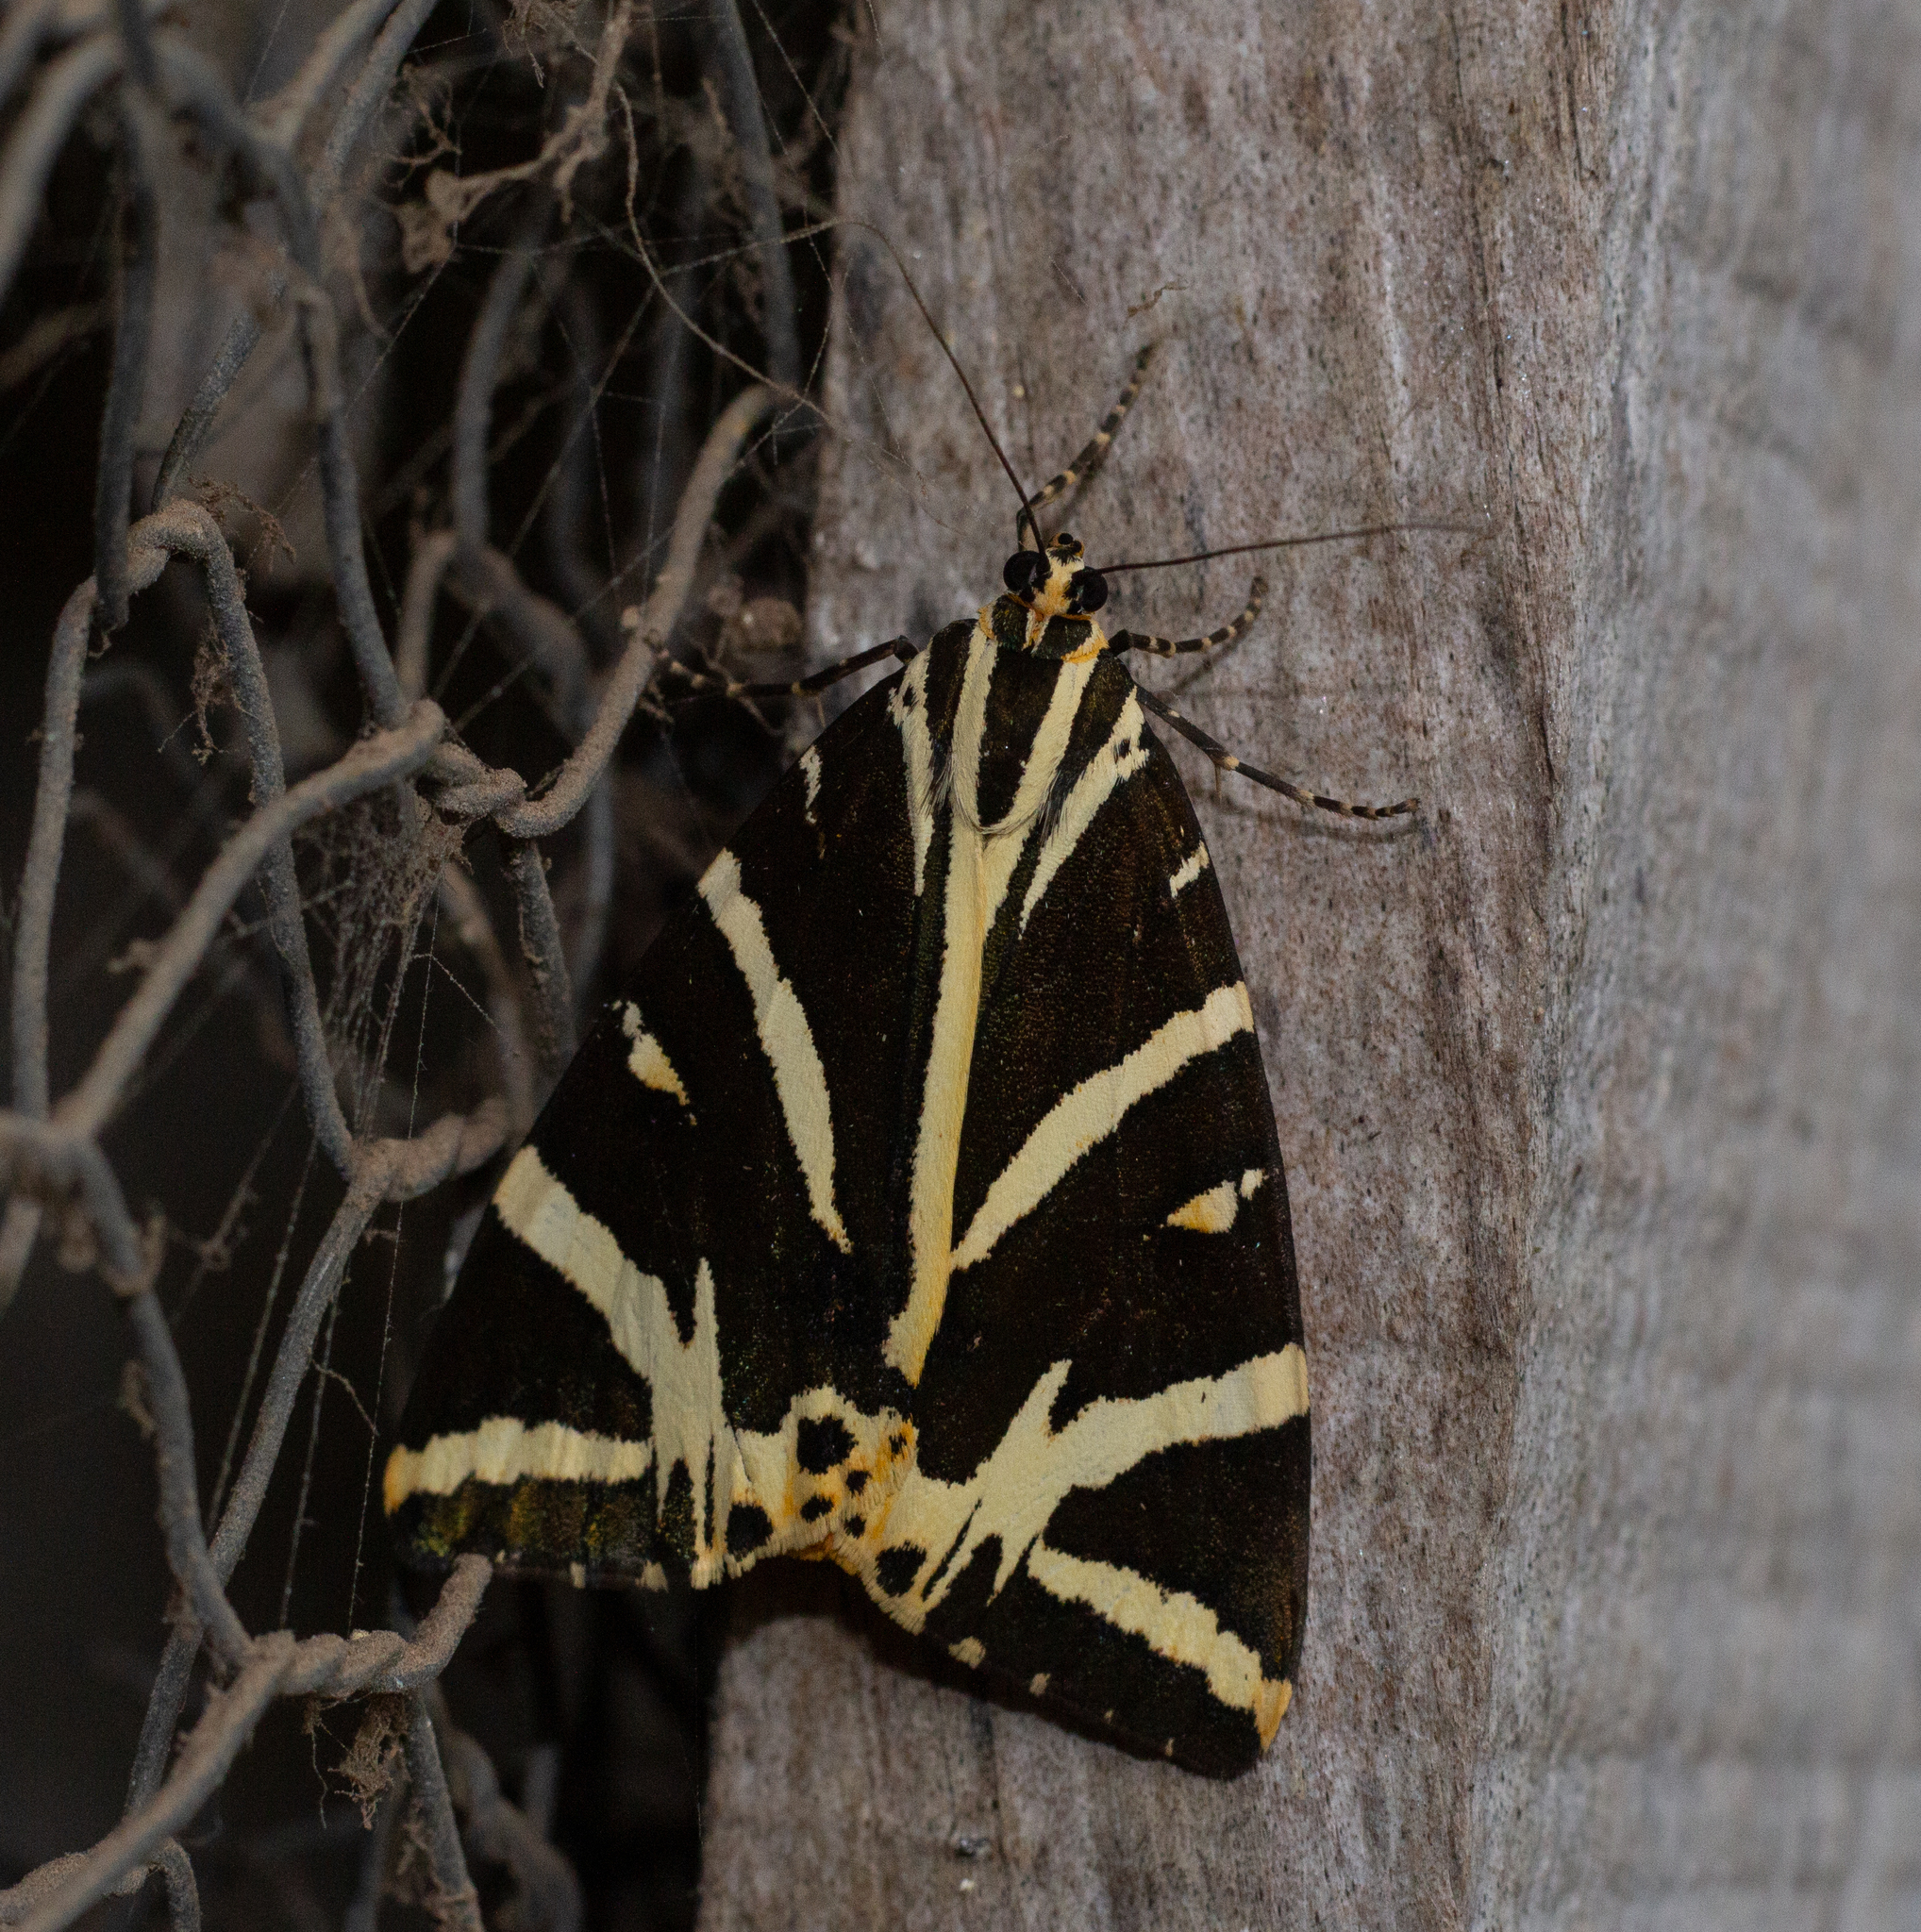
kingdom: Animalia
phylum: Arthropoda
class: Insecta
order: Lepidoptera
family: Erebidae
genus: Euplagia
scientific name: Euplagia quadripunctaria
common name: Jersey tiger
